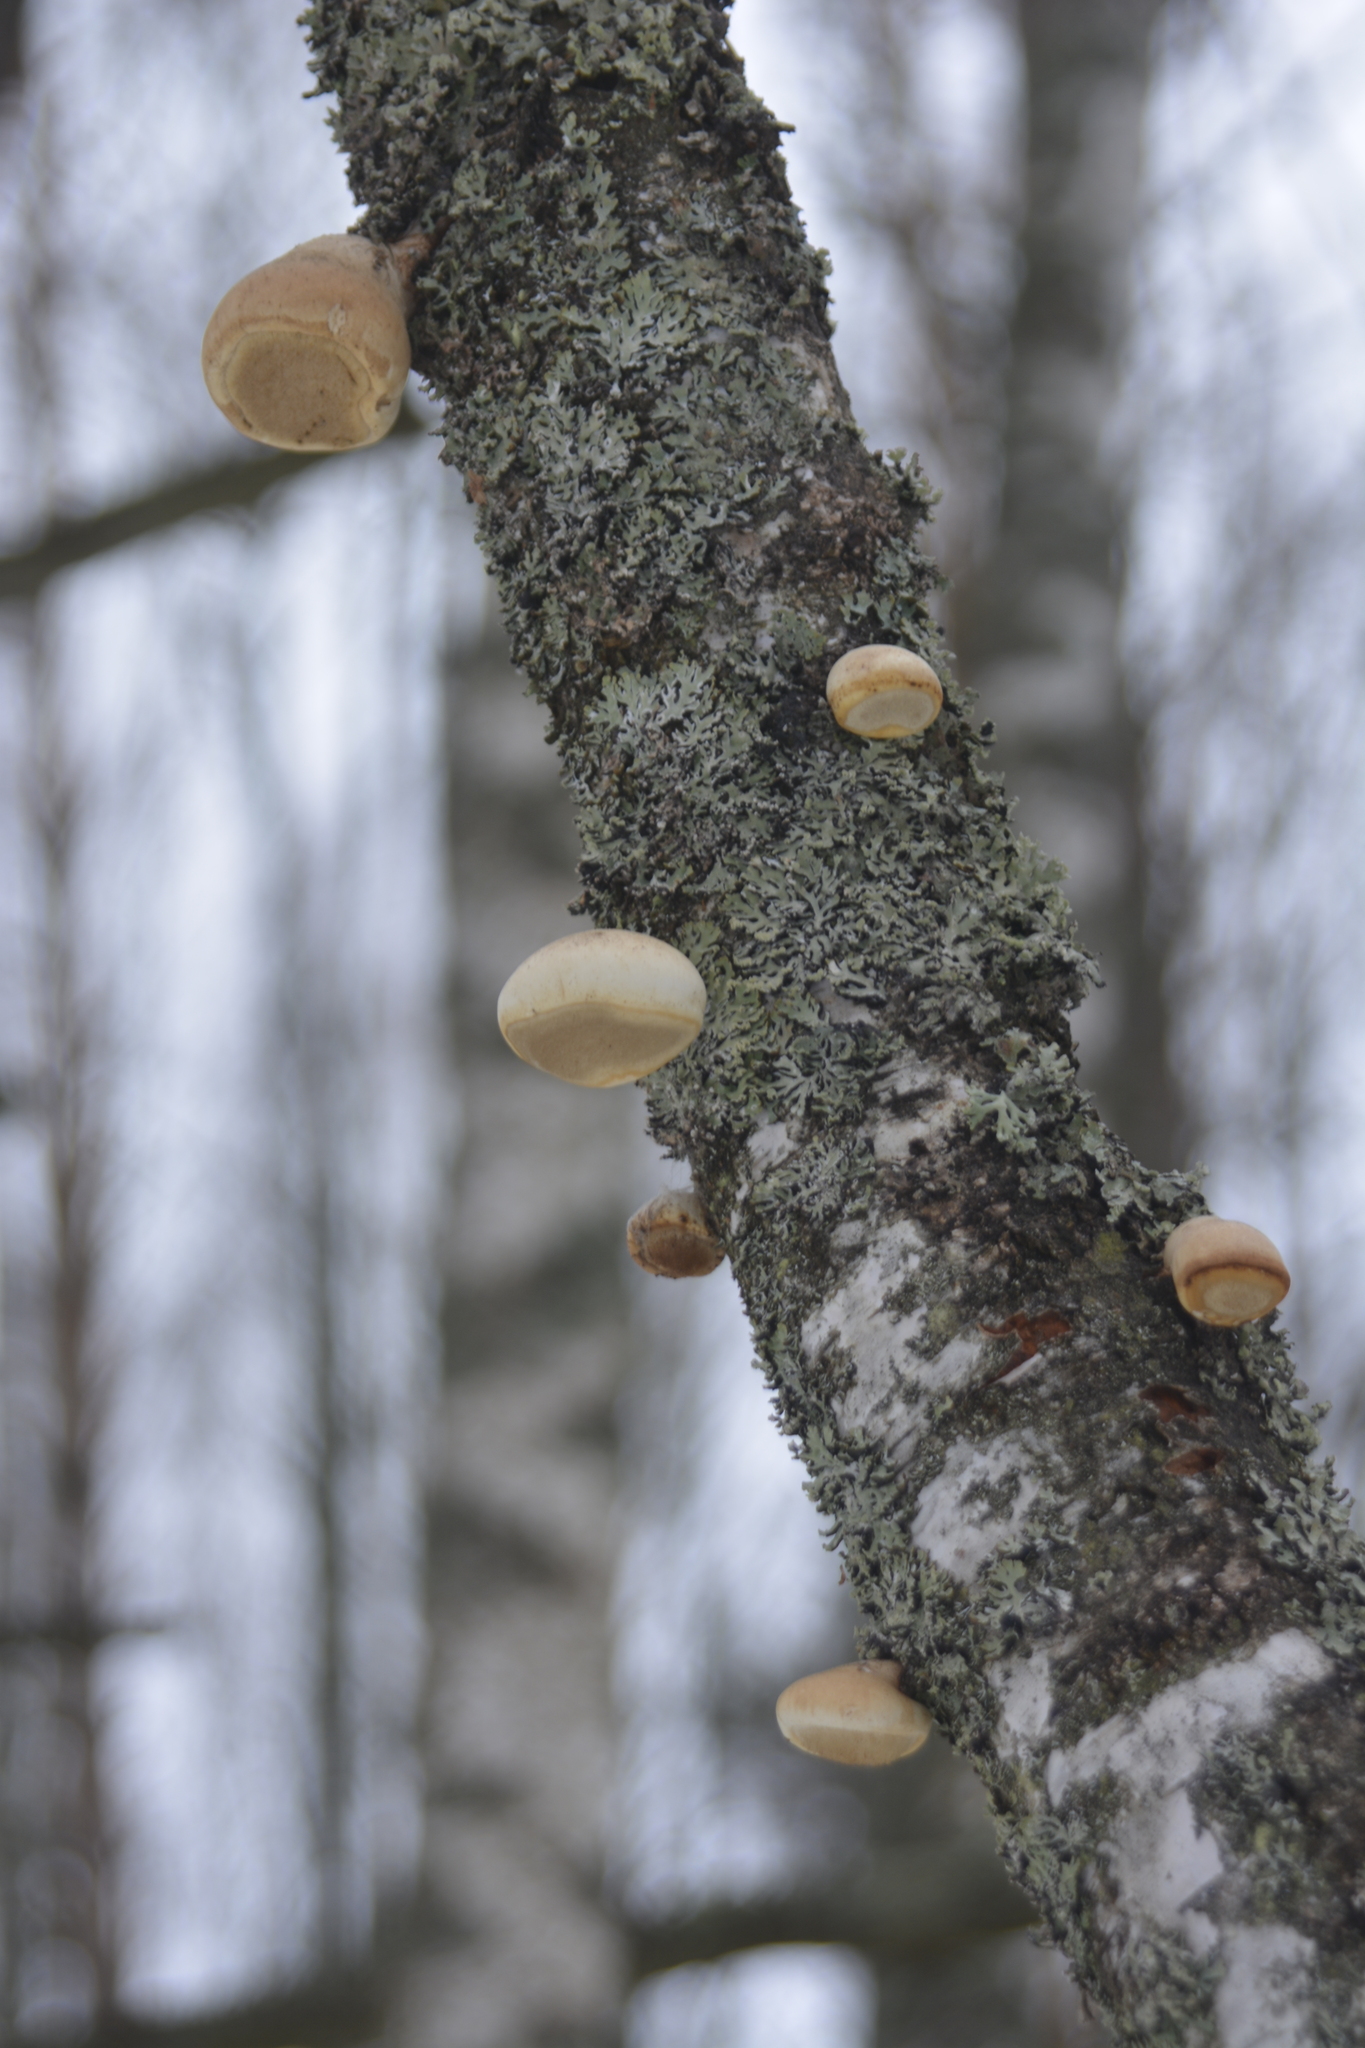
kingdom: Fungi
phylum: Basidiomycota
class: Agaricomycetes
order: Polyporales
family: Fomitopsidaceae
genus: Fomitopsis
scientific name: Fomitopsis betulina
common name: Birch polypore
